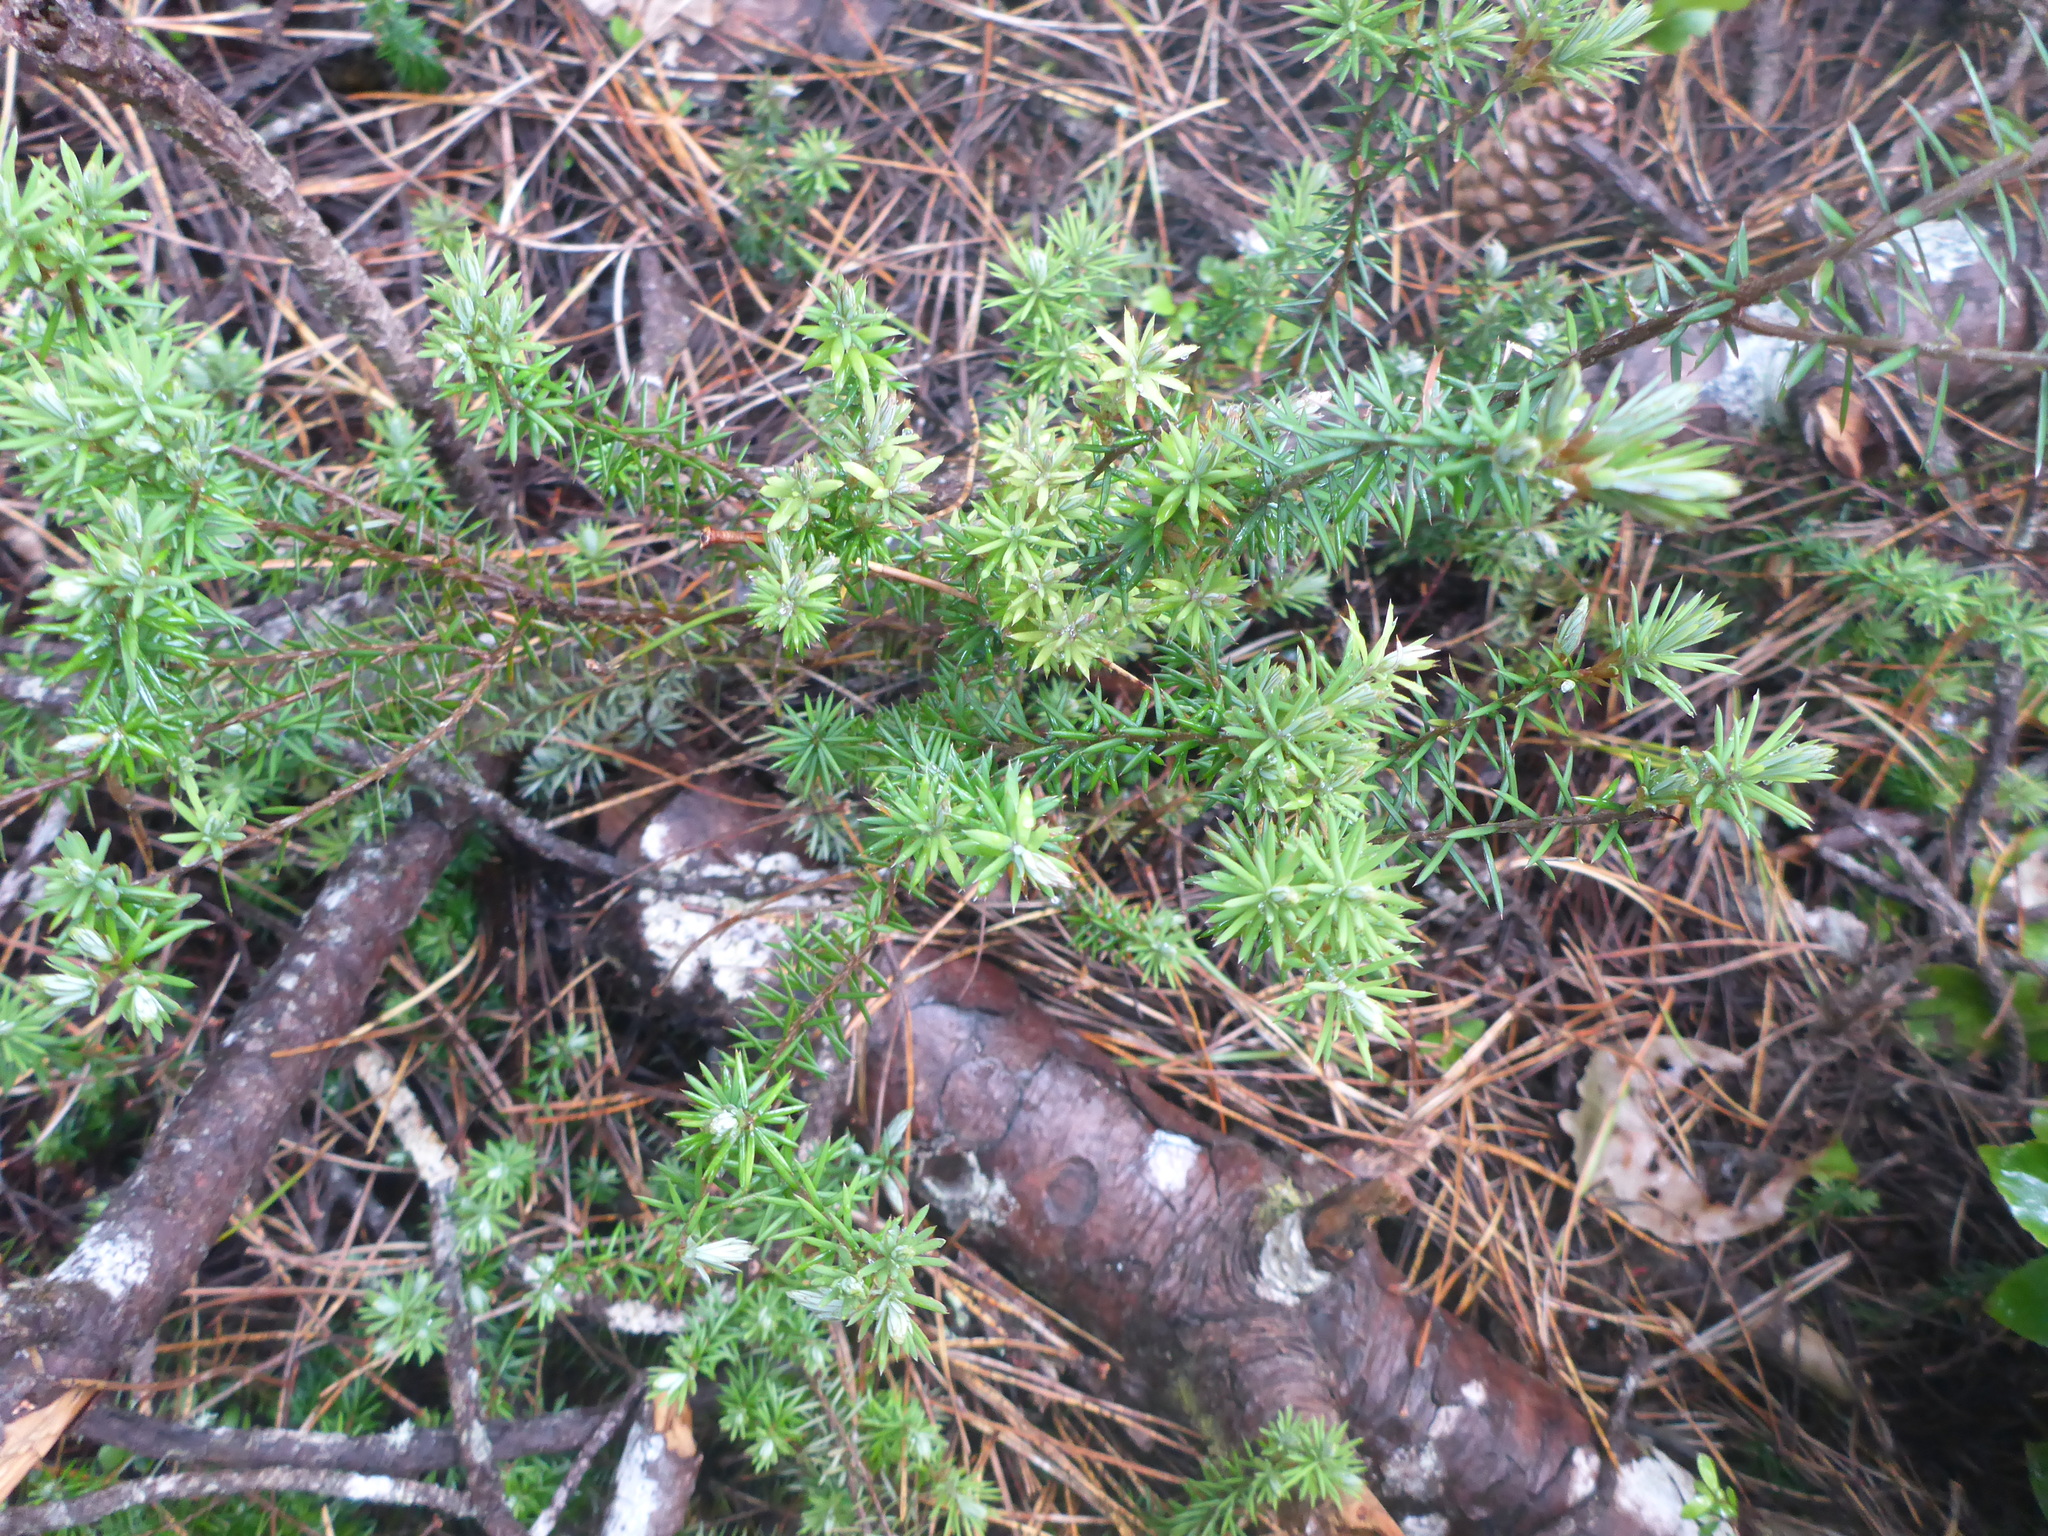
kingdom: Plantae
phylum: Tracheophyta
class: Magnoliopsida
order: Ericales
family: Ericaceae
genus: Leptecophylla
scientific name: Leptecophylla juniperina
